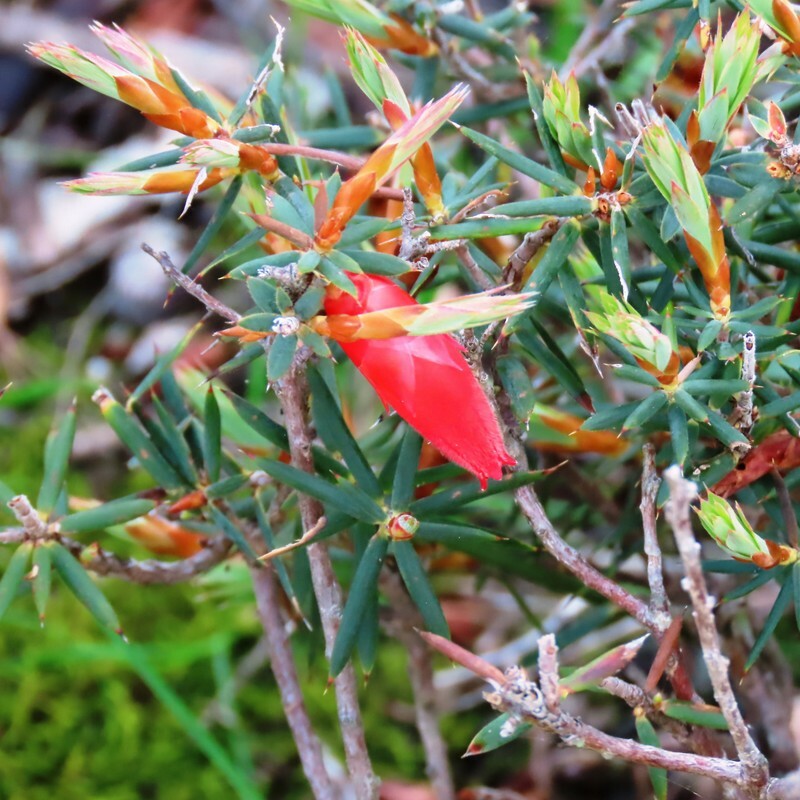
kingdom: Plantae
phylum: Tracheophyta
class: Magnoliopsida
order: Ericales
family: Ericaceae
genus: Stenanthera
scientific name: Stenanthera conostephioides
